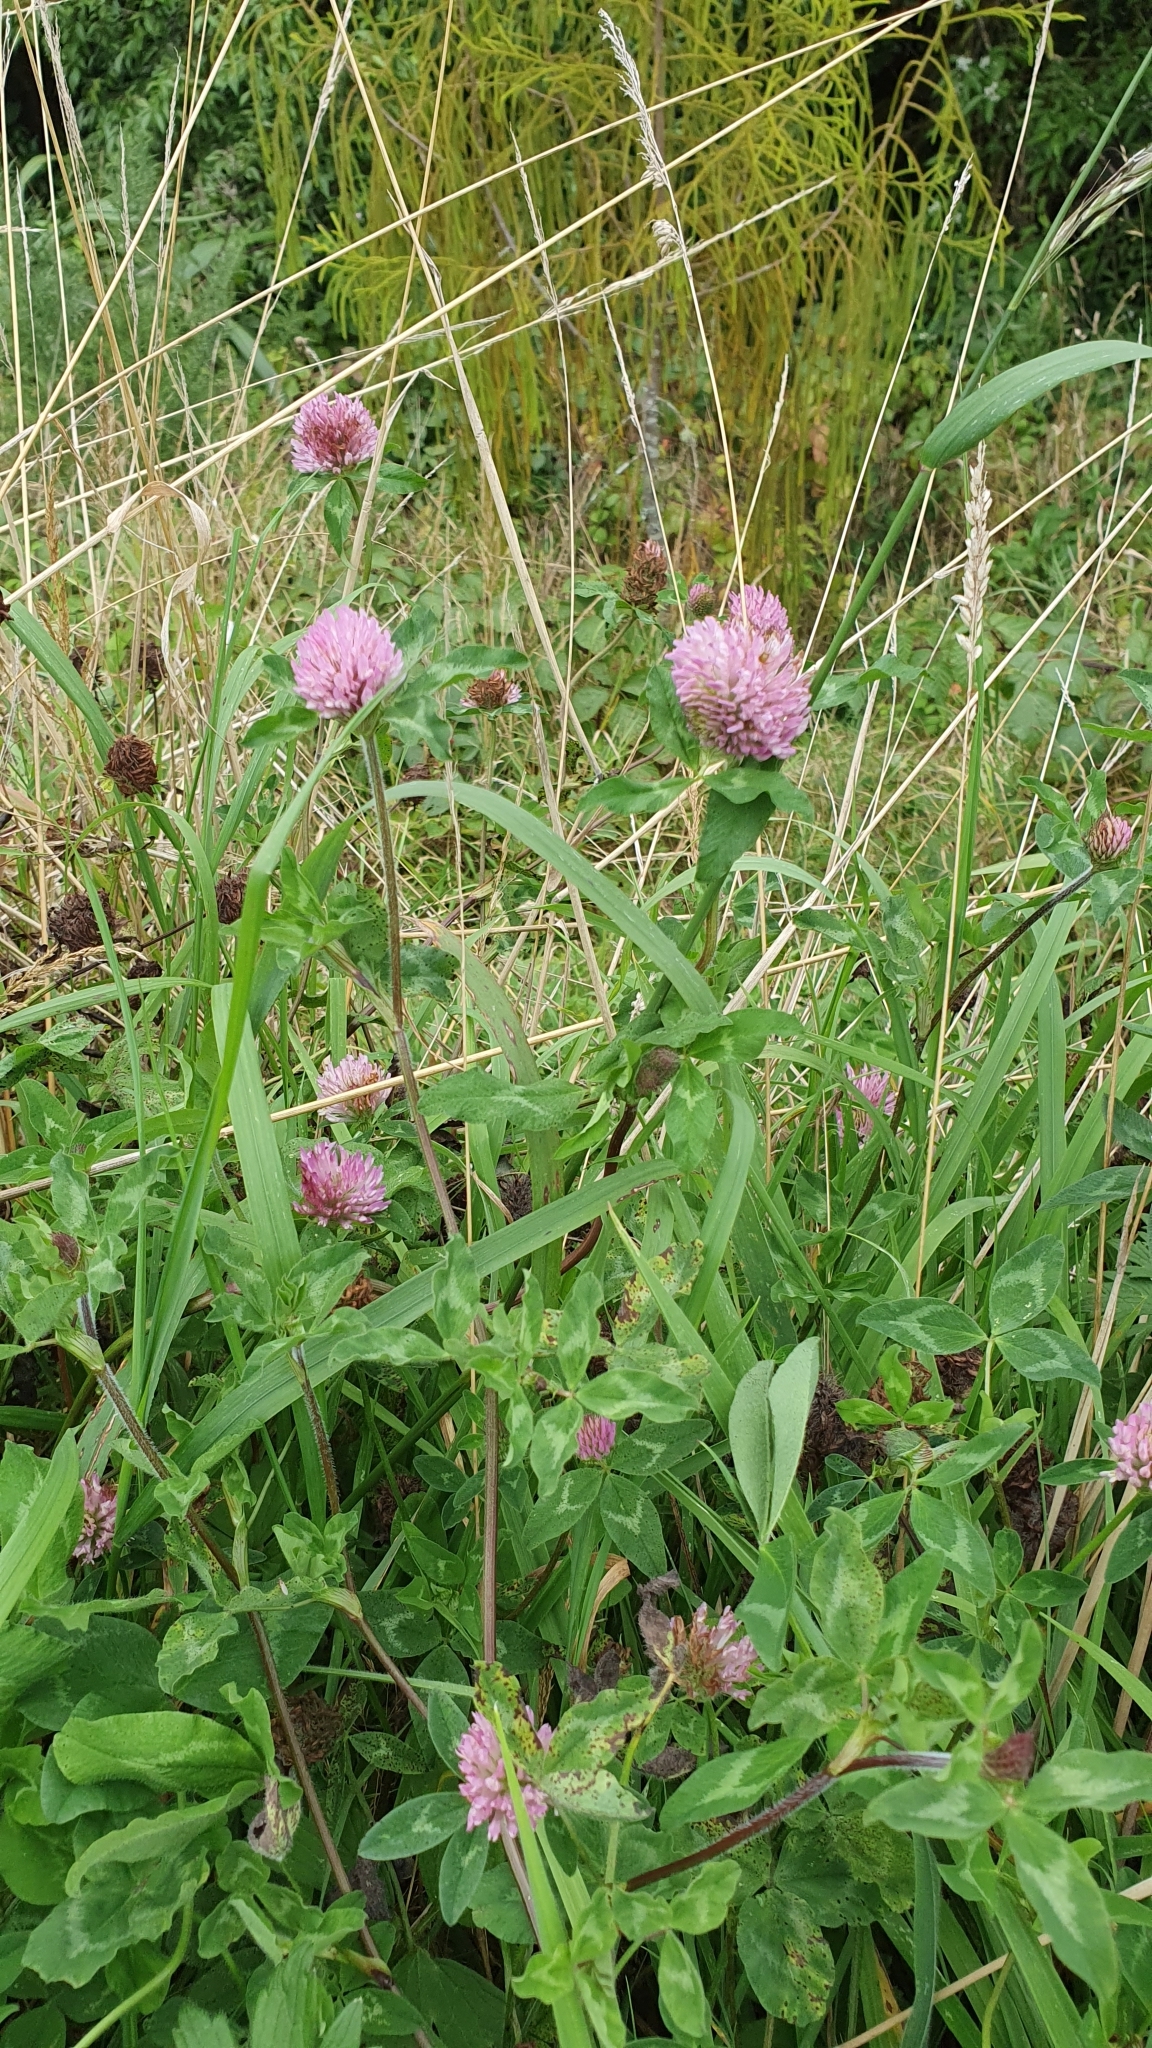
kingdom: Plantae
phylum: Tracheophyta
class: Magnoliopsida
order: Fabales
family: Fabaceae
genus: Trifolium
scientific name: Trifolium pratense
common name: Red clover
